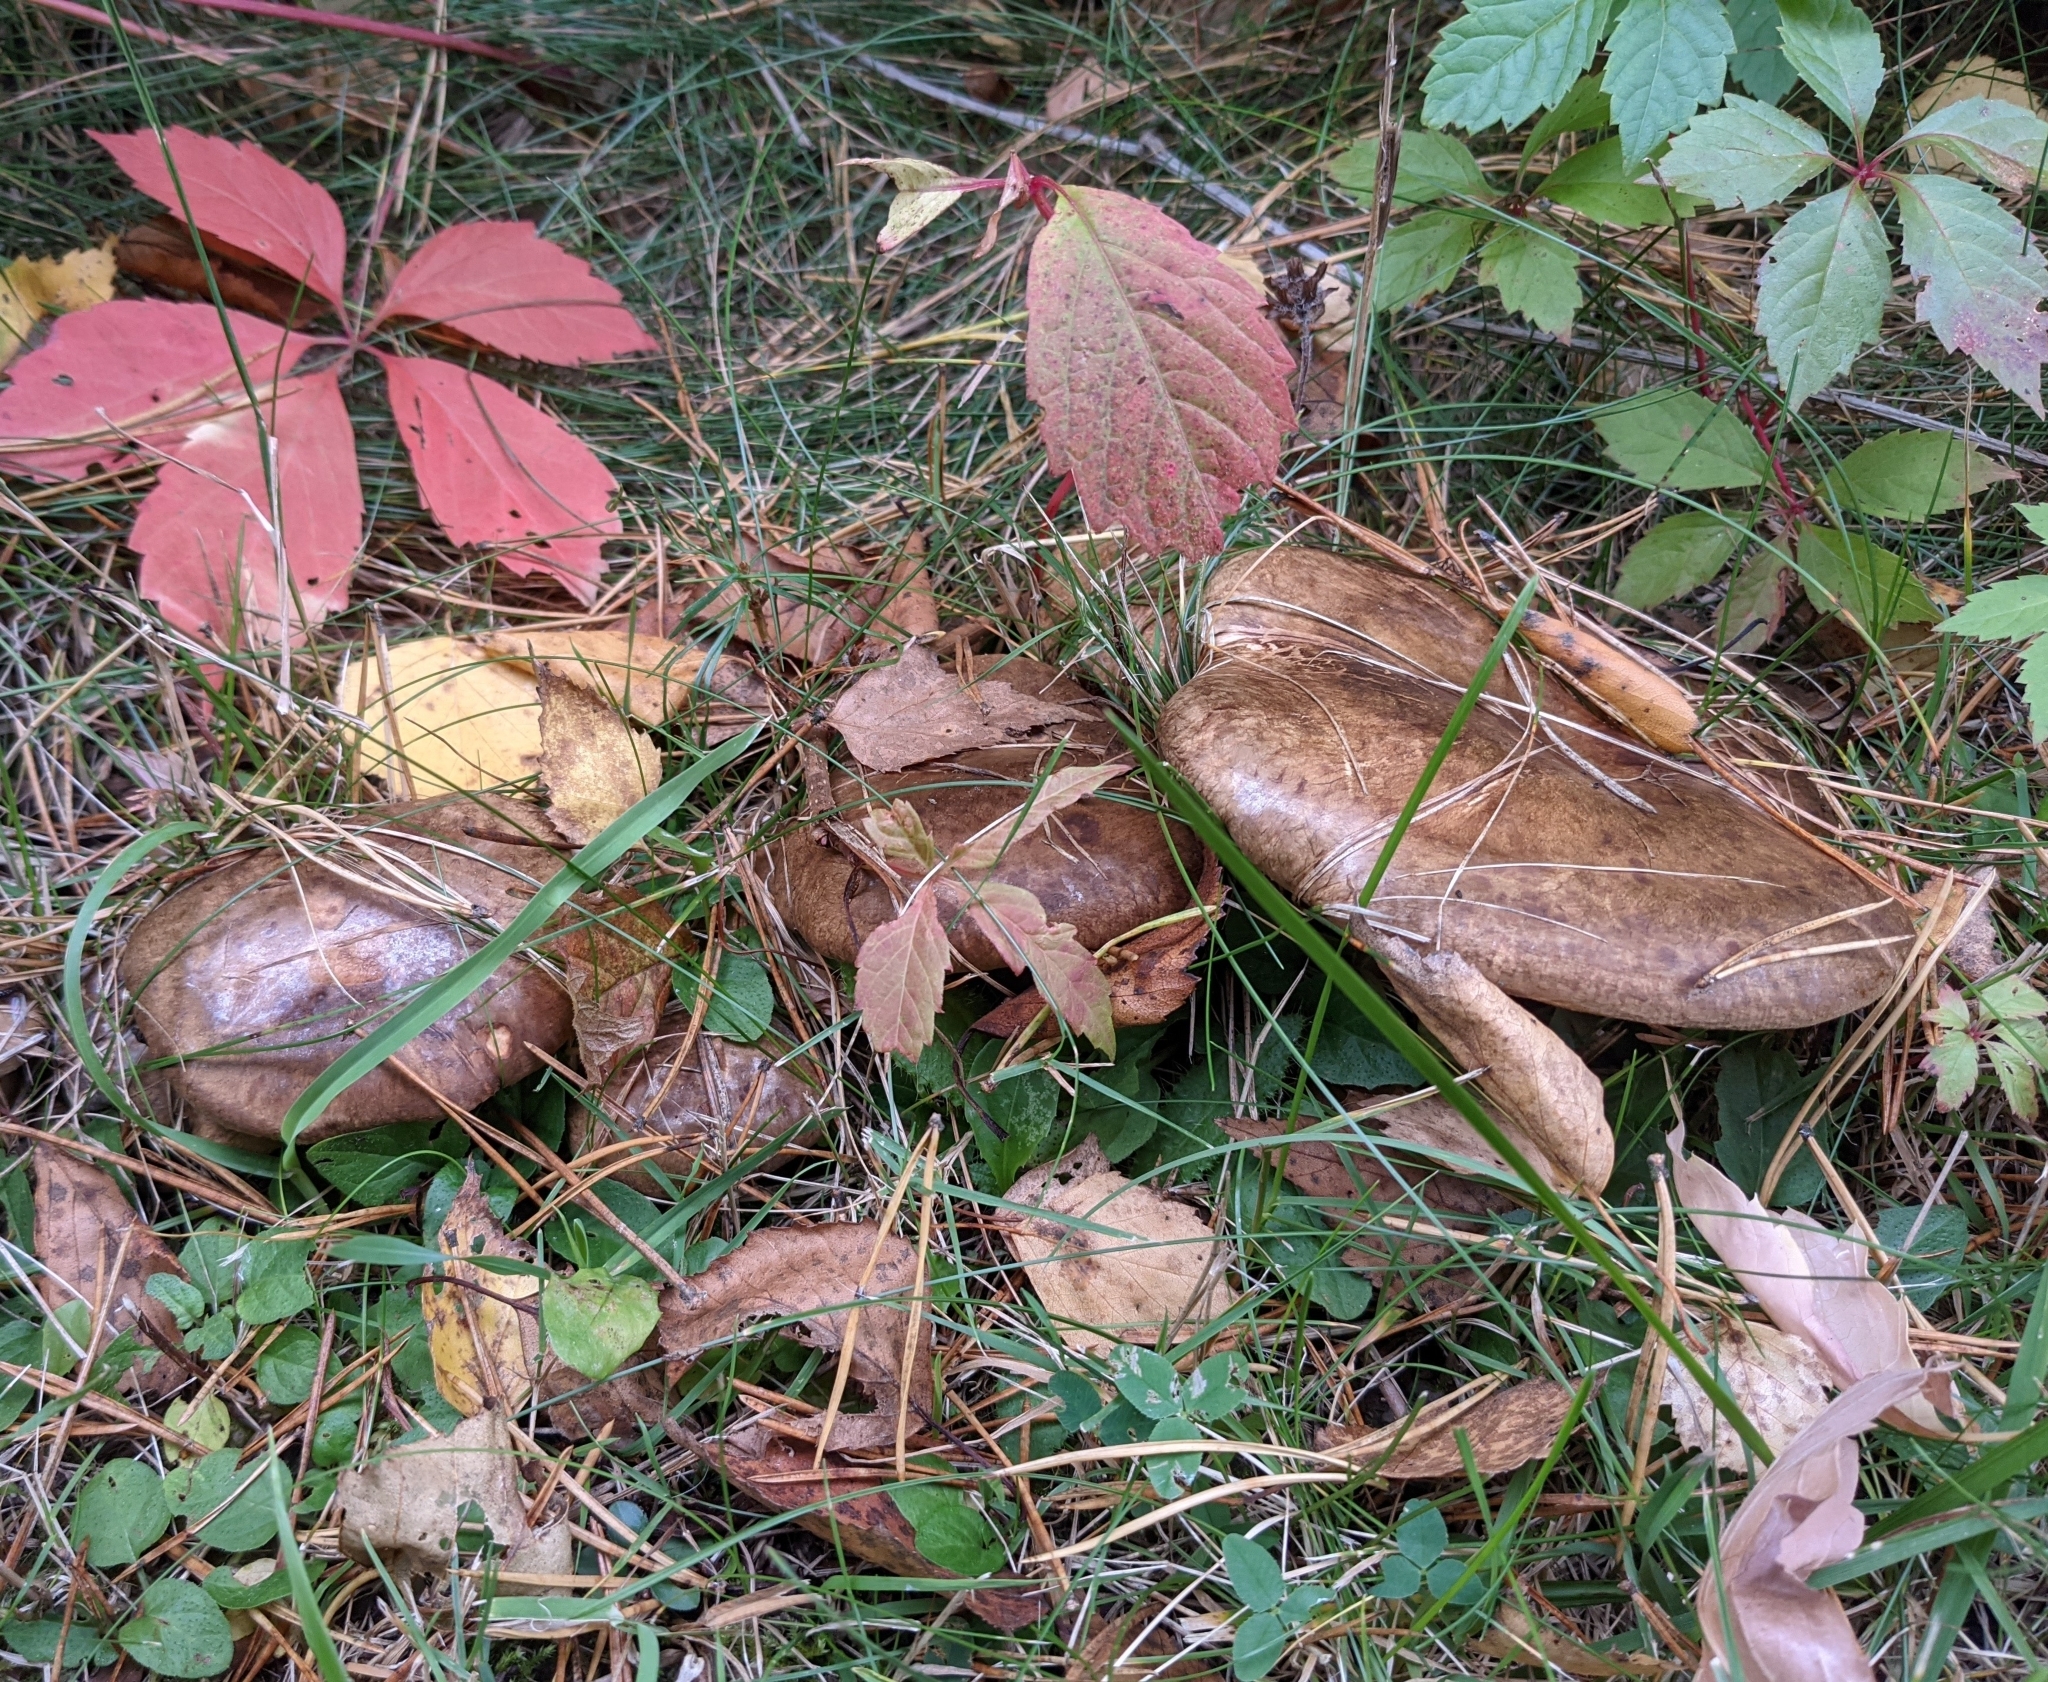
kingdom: Fungi
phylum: Basidiomycota
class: Agaricomycetes
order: Boletales
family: Paxillaceae
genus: Paxillus
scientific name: Paxillus involutus
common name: Brown roll rim
